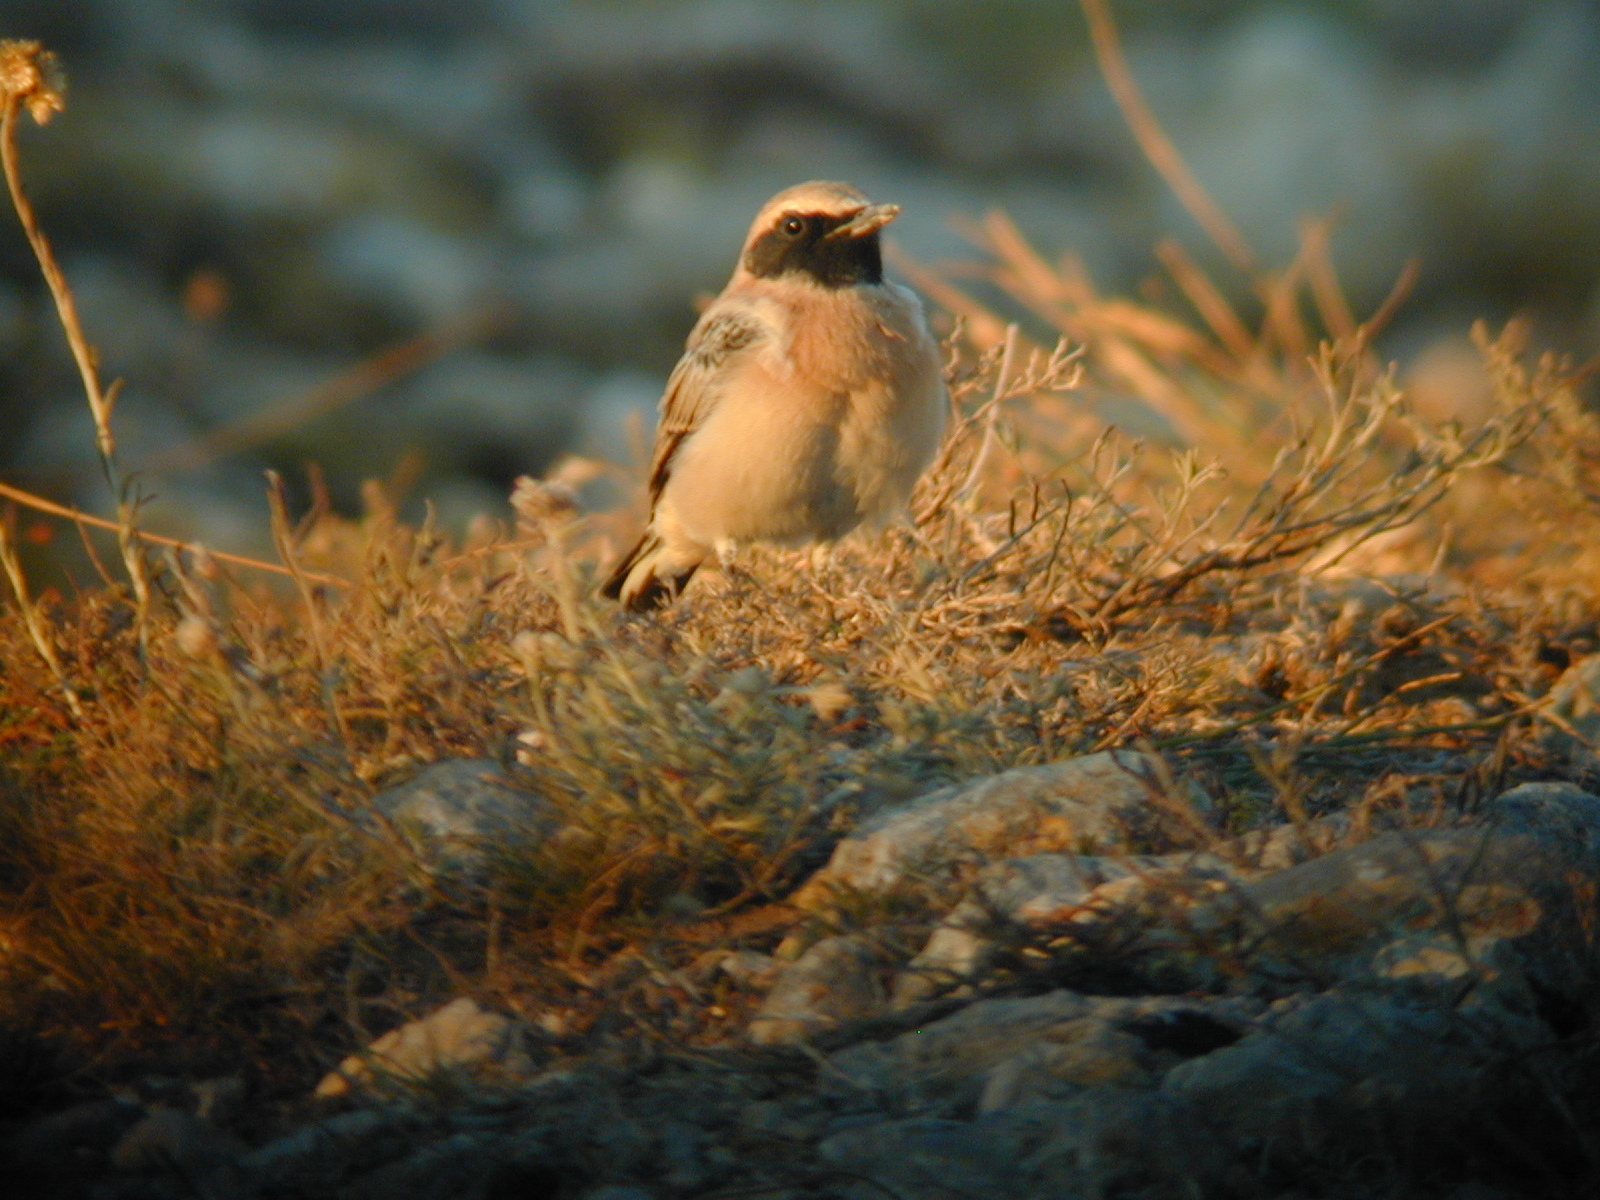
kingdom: Animalia
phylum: Chordata
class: Aves
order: Passeriformes
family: Muscicapidae
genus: Oenanthe
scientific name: Oenanthe hispanica
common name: Black-eared wheatear
